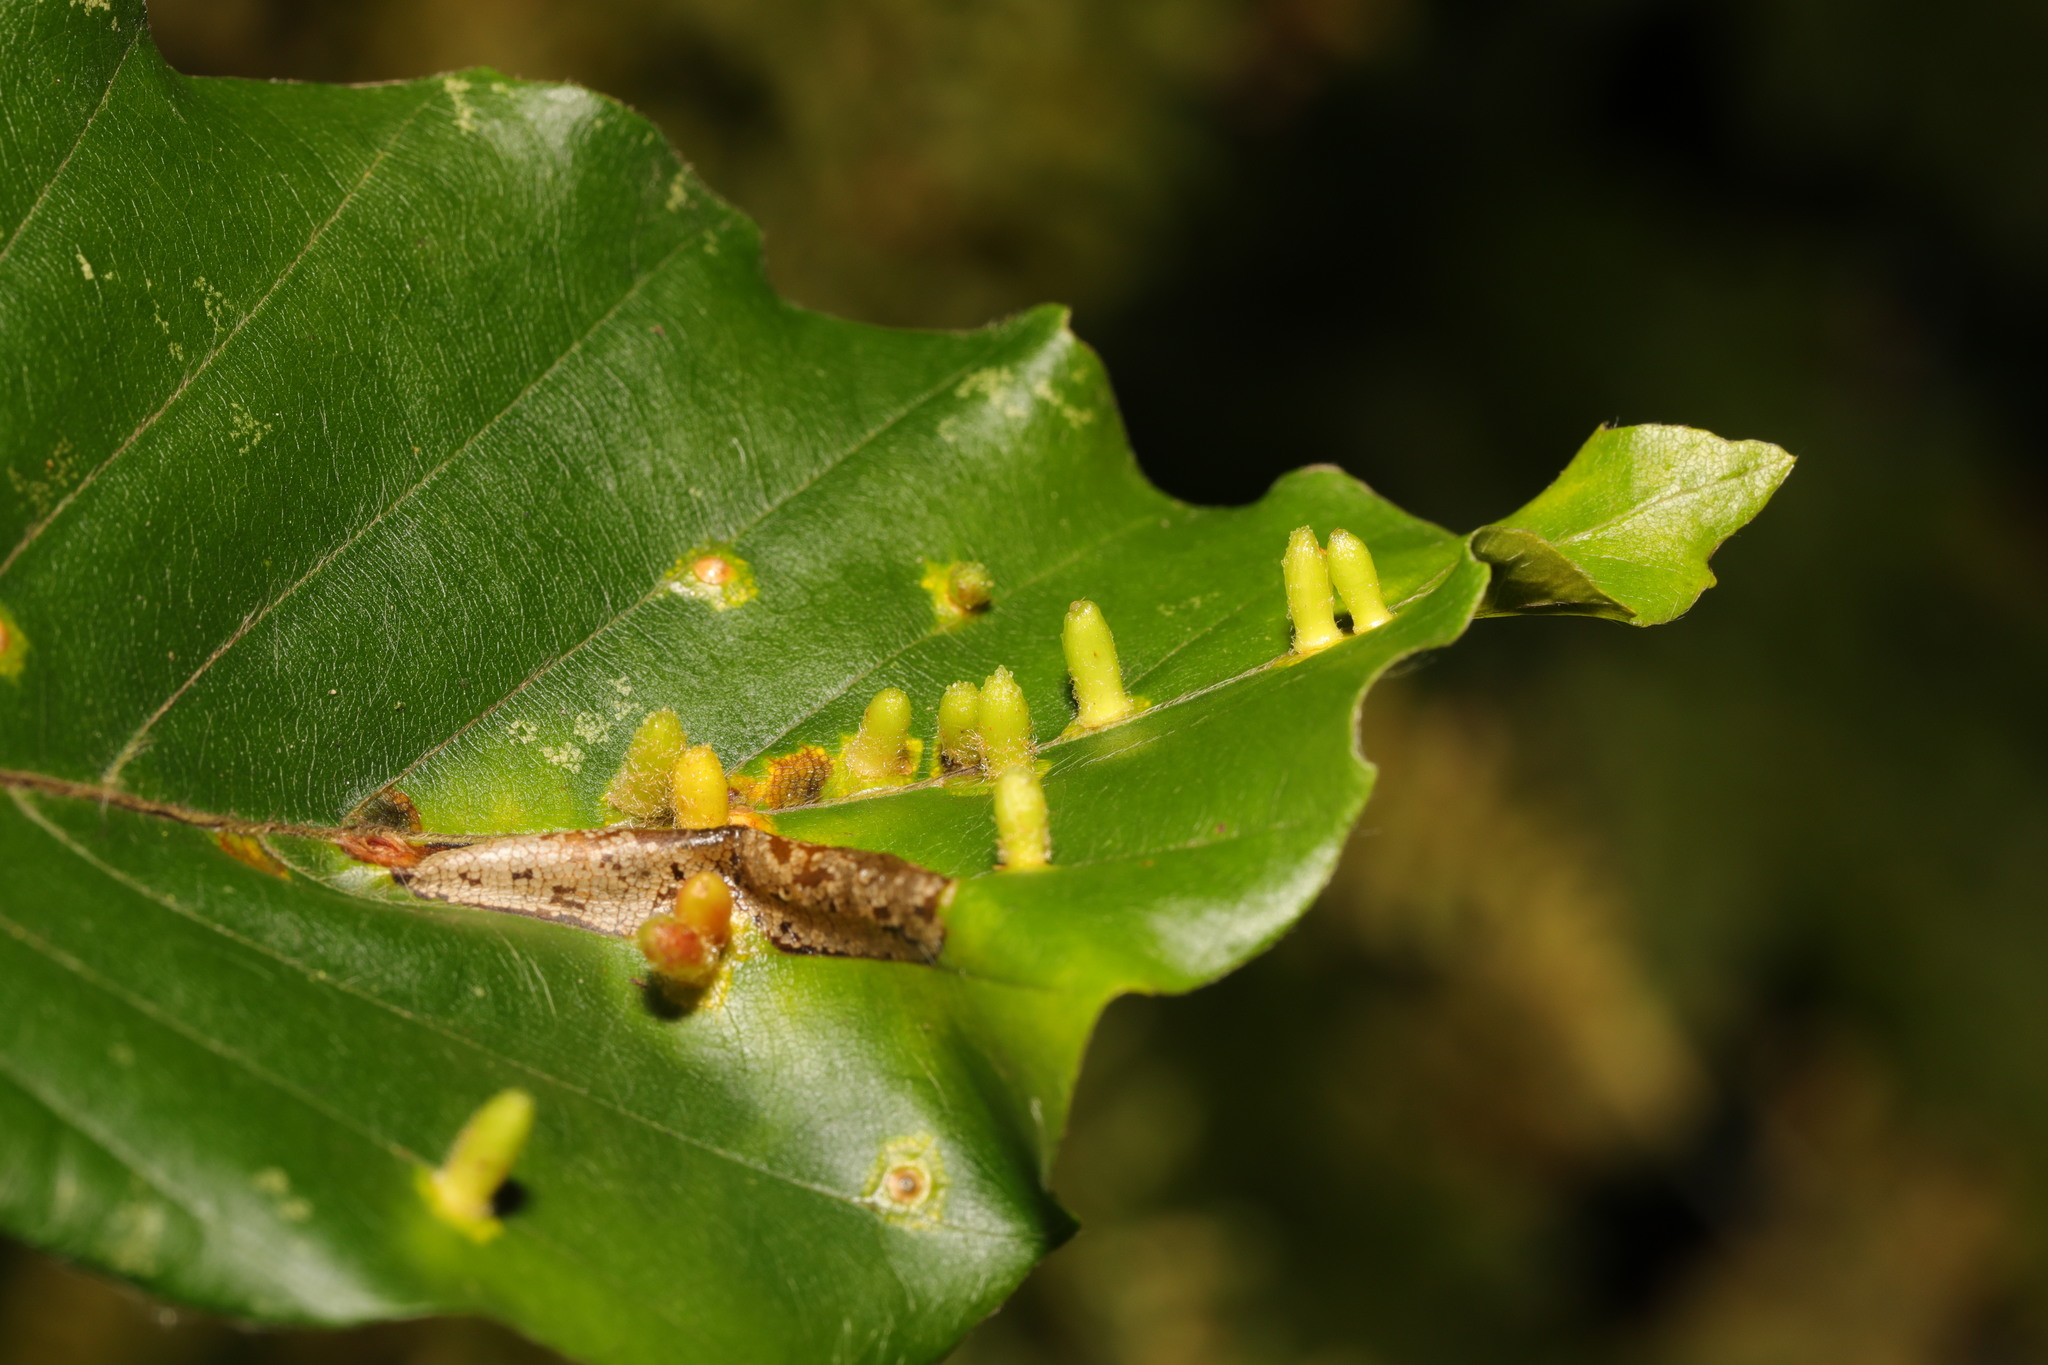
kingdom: Animalia
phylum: Arthropoda
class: Insecta
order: Diptera
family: Cecidomyiidae
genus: Hartigiola
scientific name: Hartigiola annulipes
